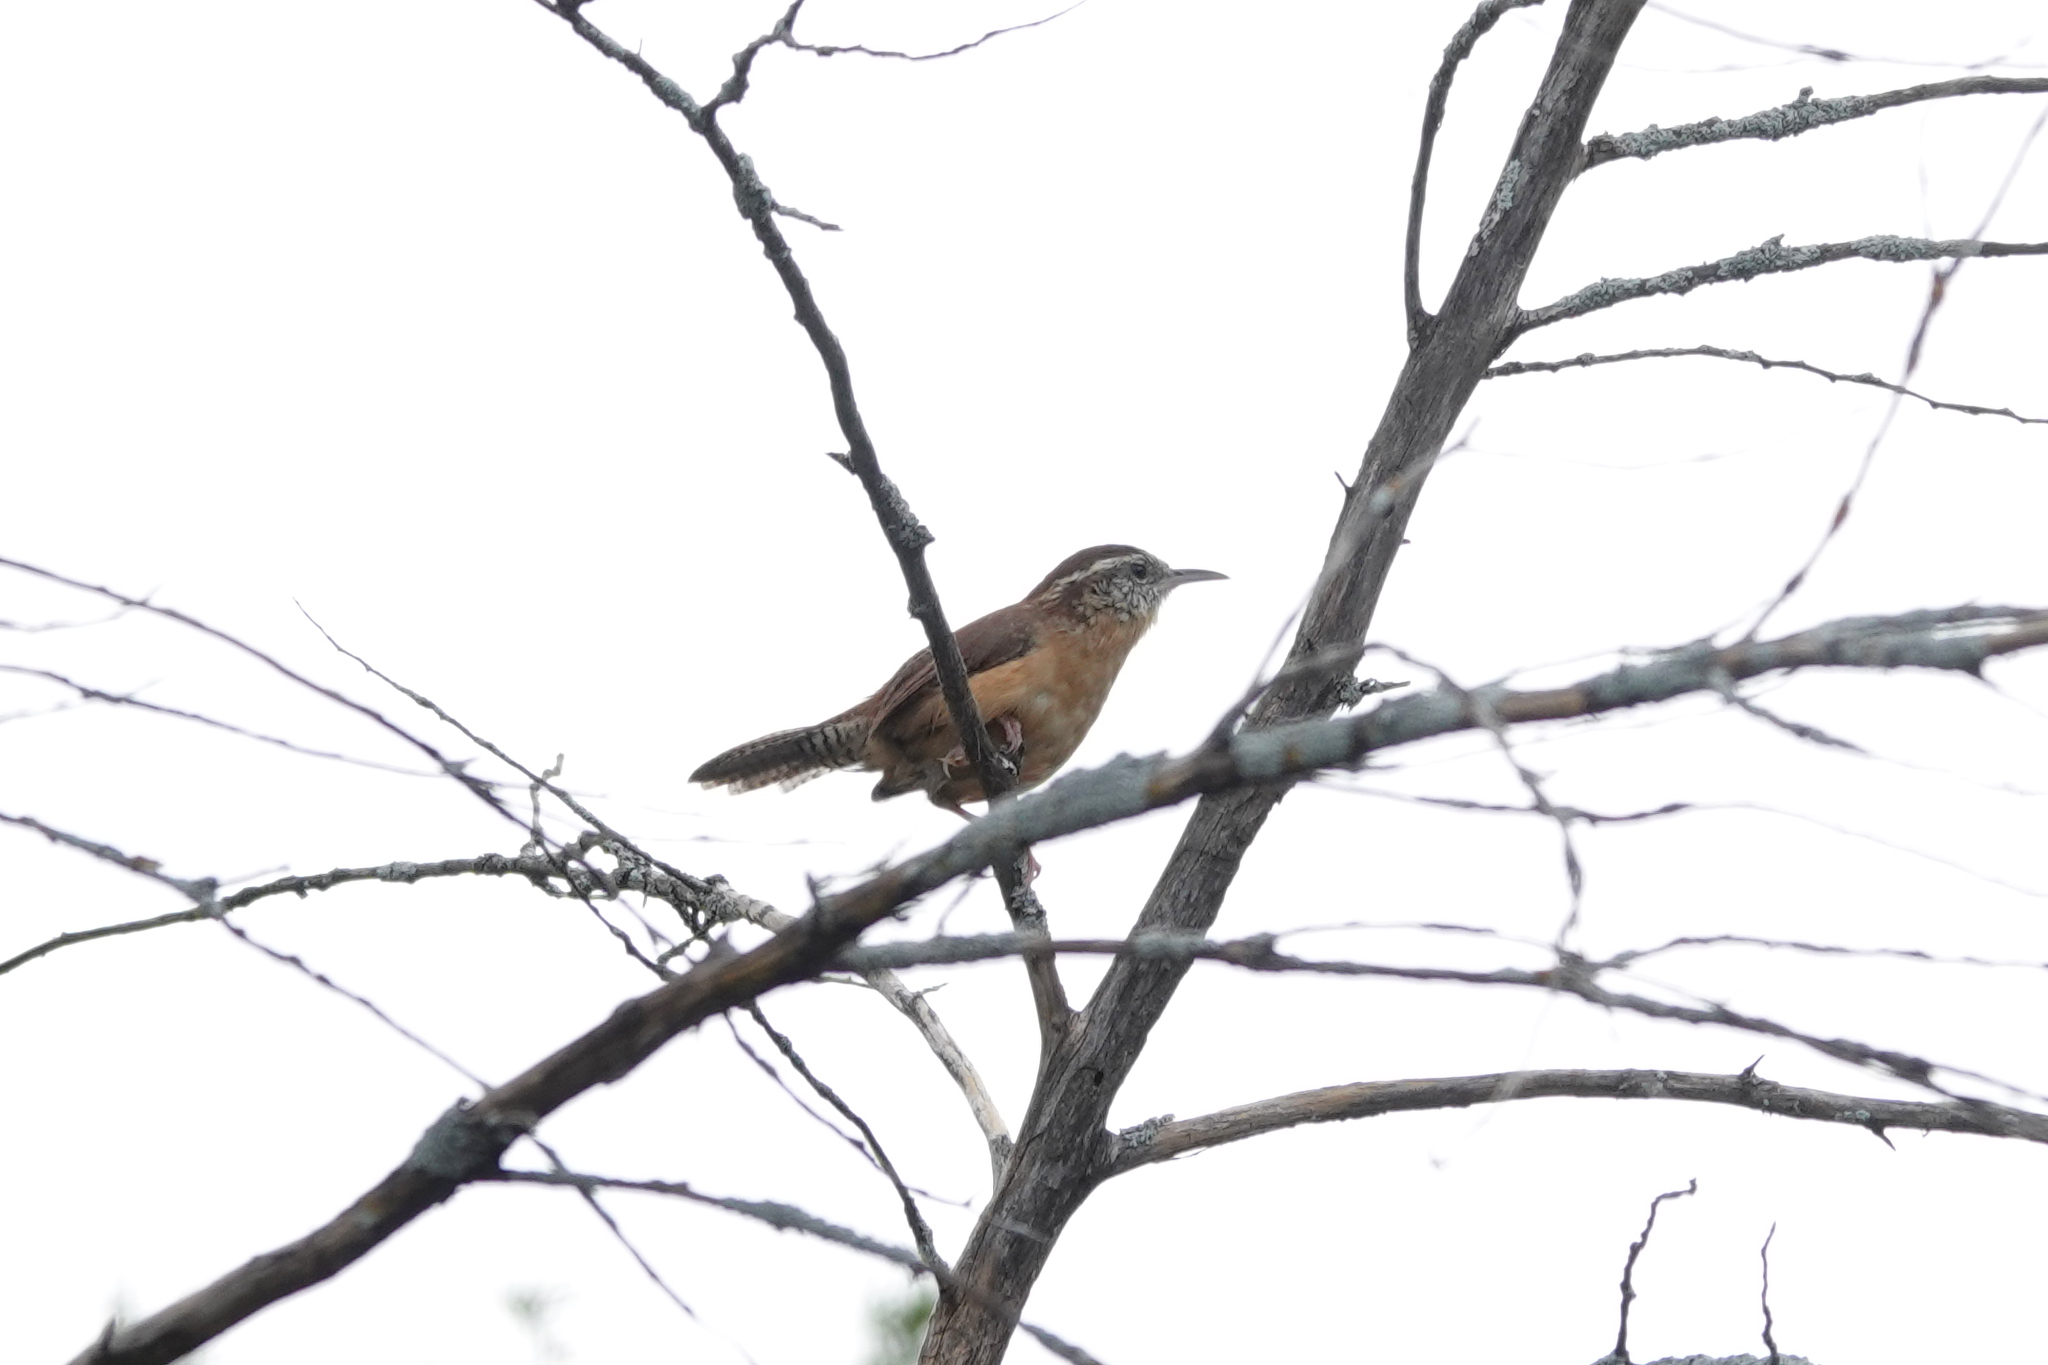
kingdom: Animalia
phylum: Chordata
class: Aves
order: Passeriformes
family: Troglodytidae
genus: Thryothorus
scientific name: Thryothorus ludovicianus
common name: Carolina wren
